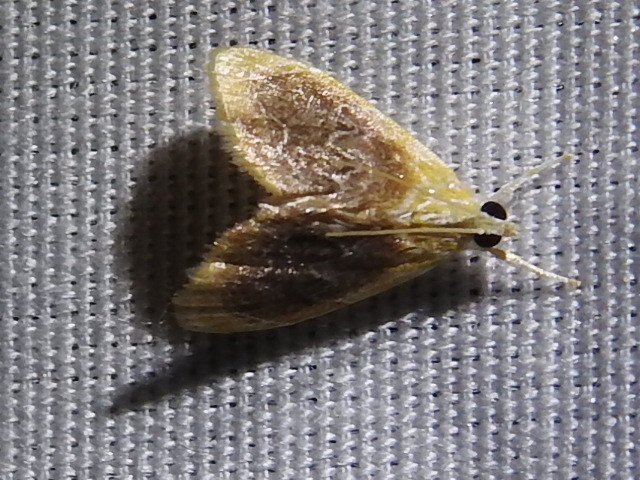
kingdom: Animalia
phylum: Arthropoda
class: Insecta
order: Lepidoptera
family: Crambidae
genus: Glaphyria
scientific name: Glaphyria fulminalis
